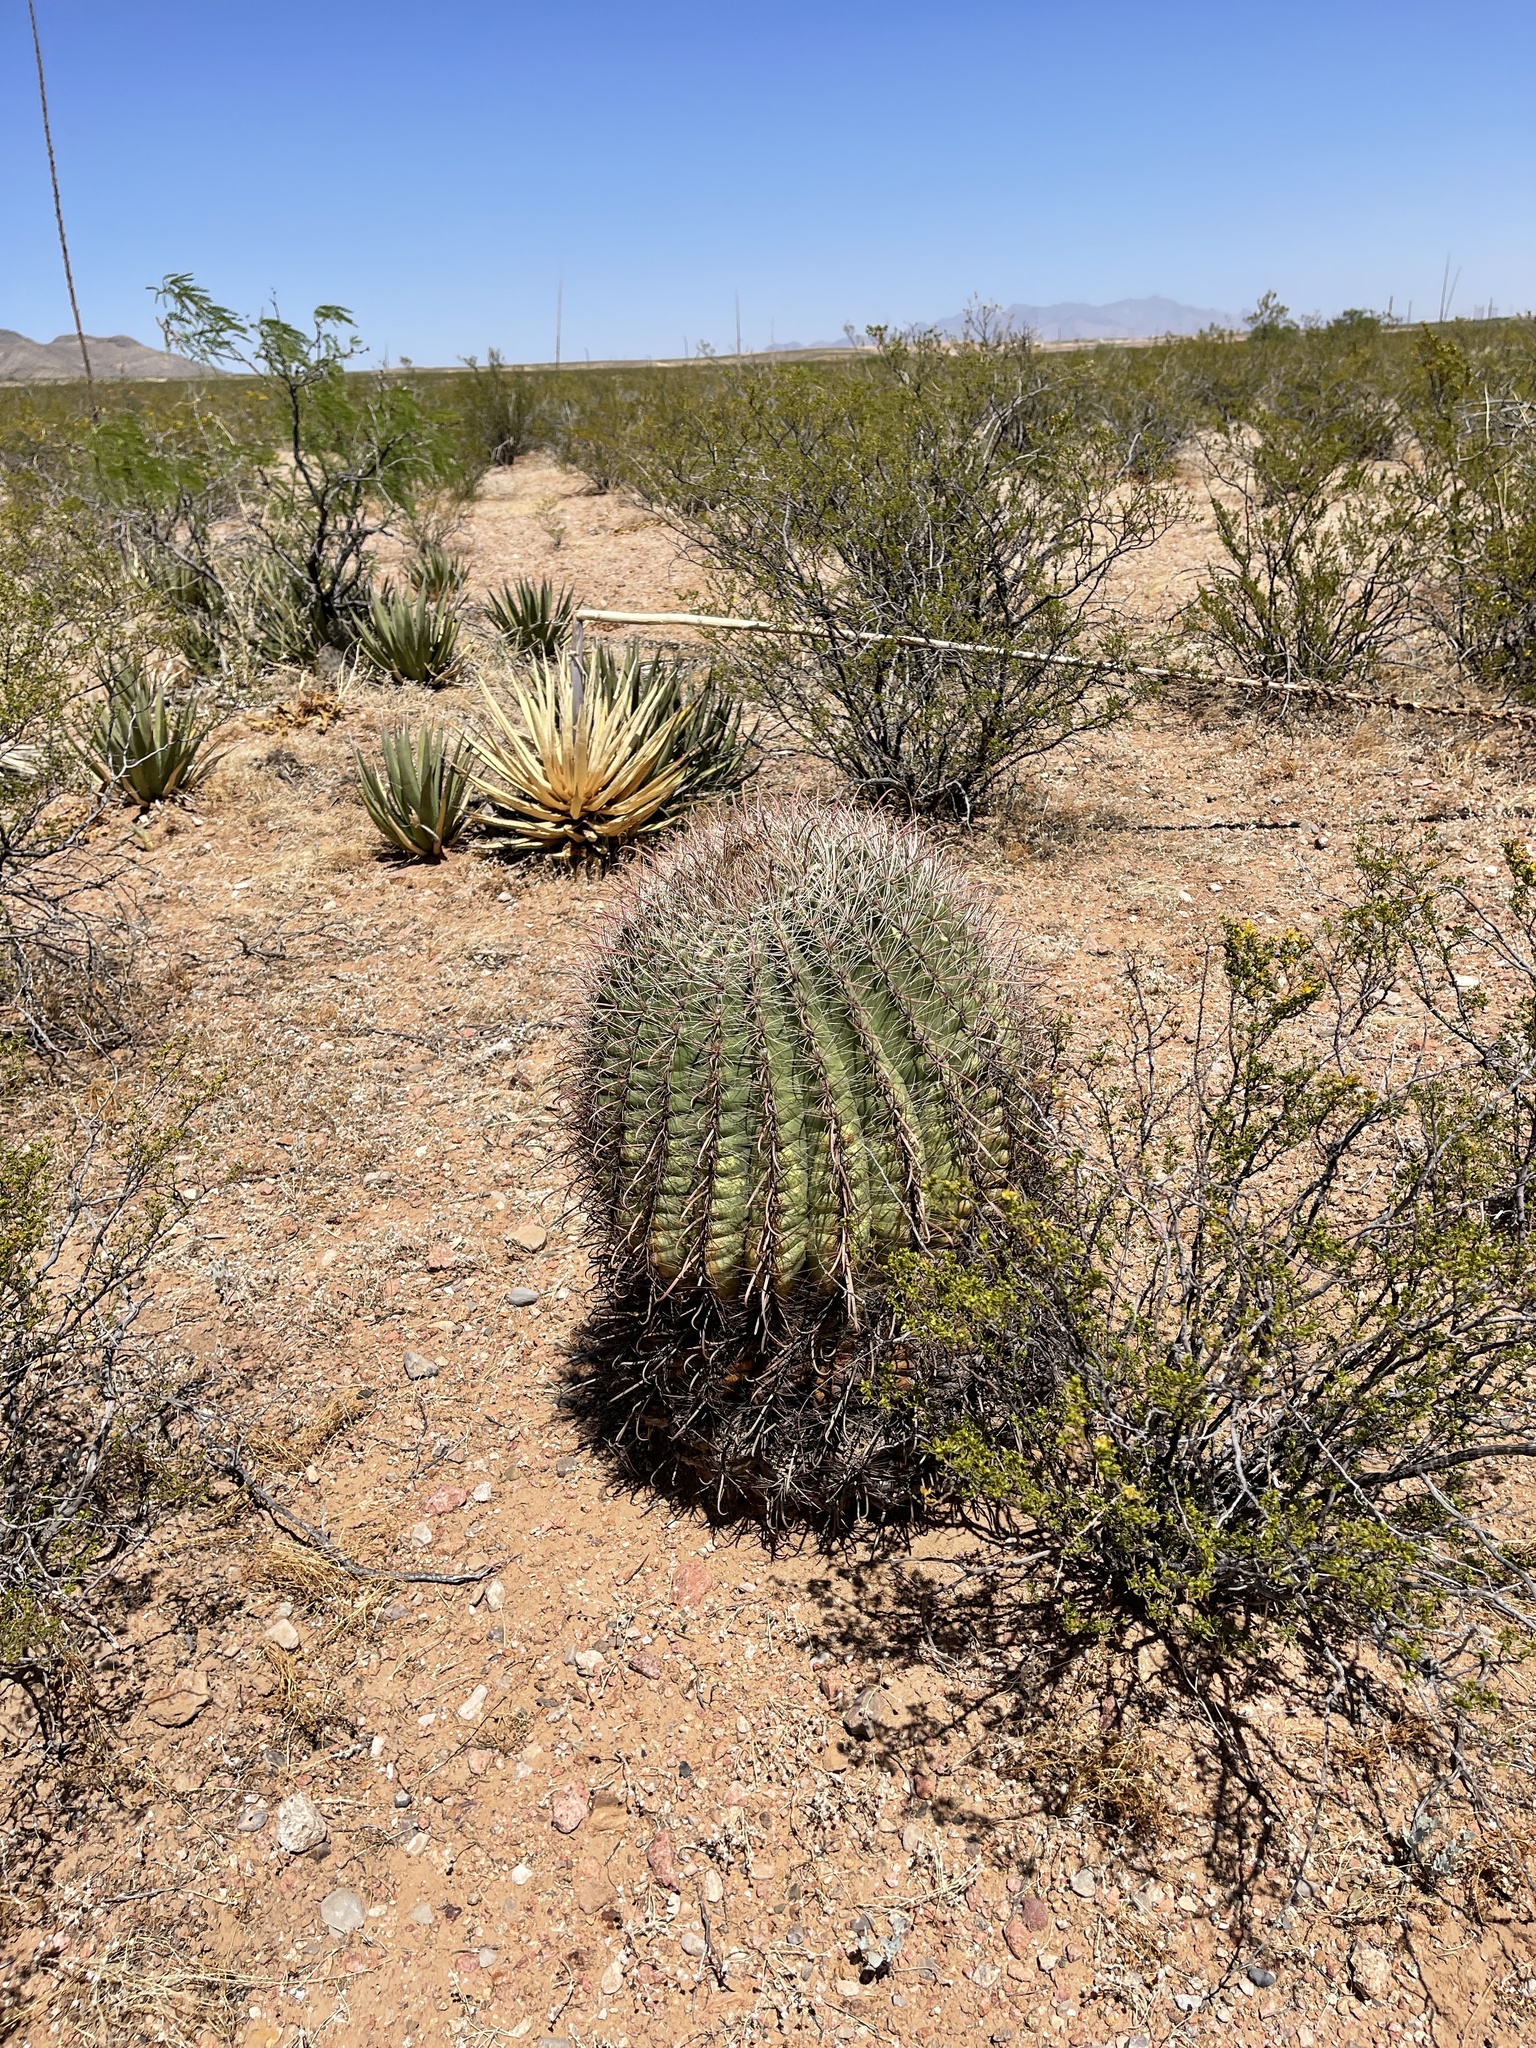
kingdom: Plantae
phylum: Tracheophyta
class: Magnoliopsida
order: Caryophyllales
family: Cactaceae
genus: Ferocactus
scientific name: Ferocactus wislizeni
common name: Candy barrel cactus
